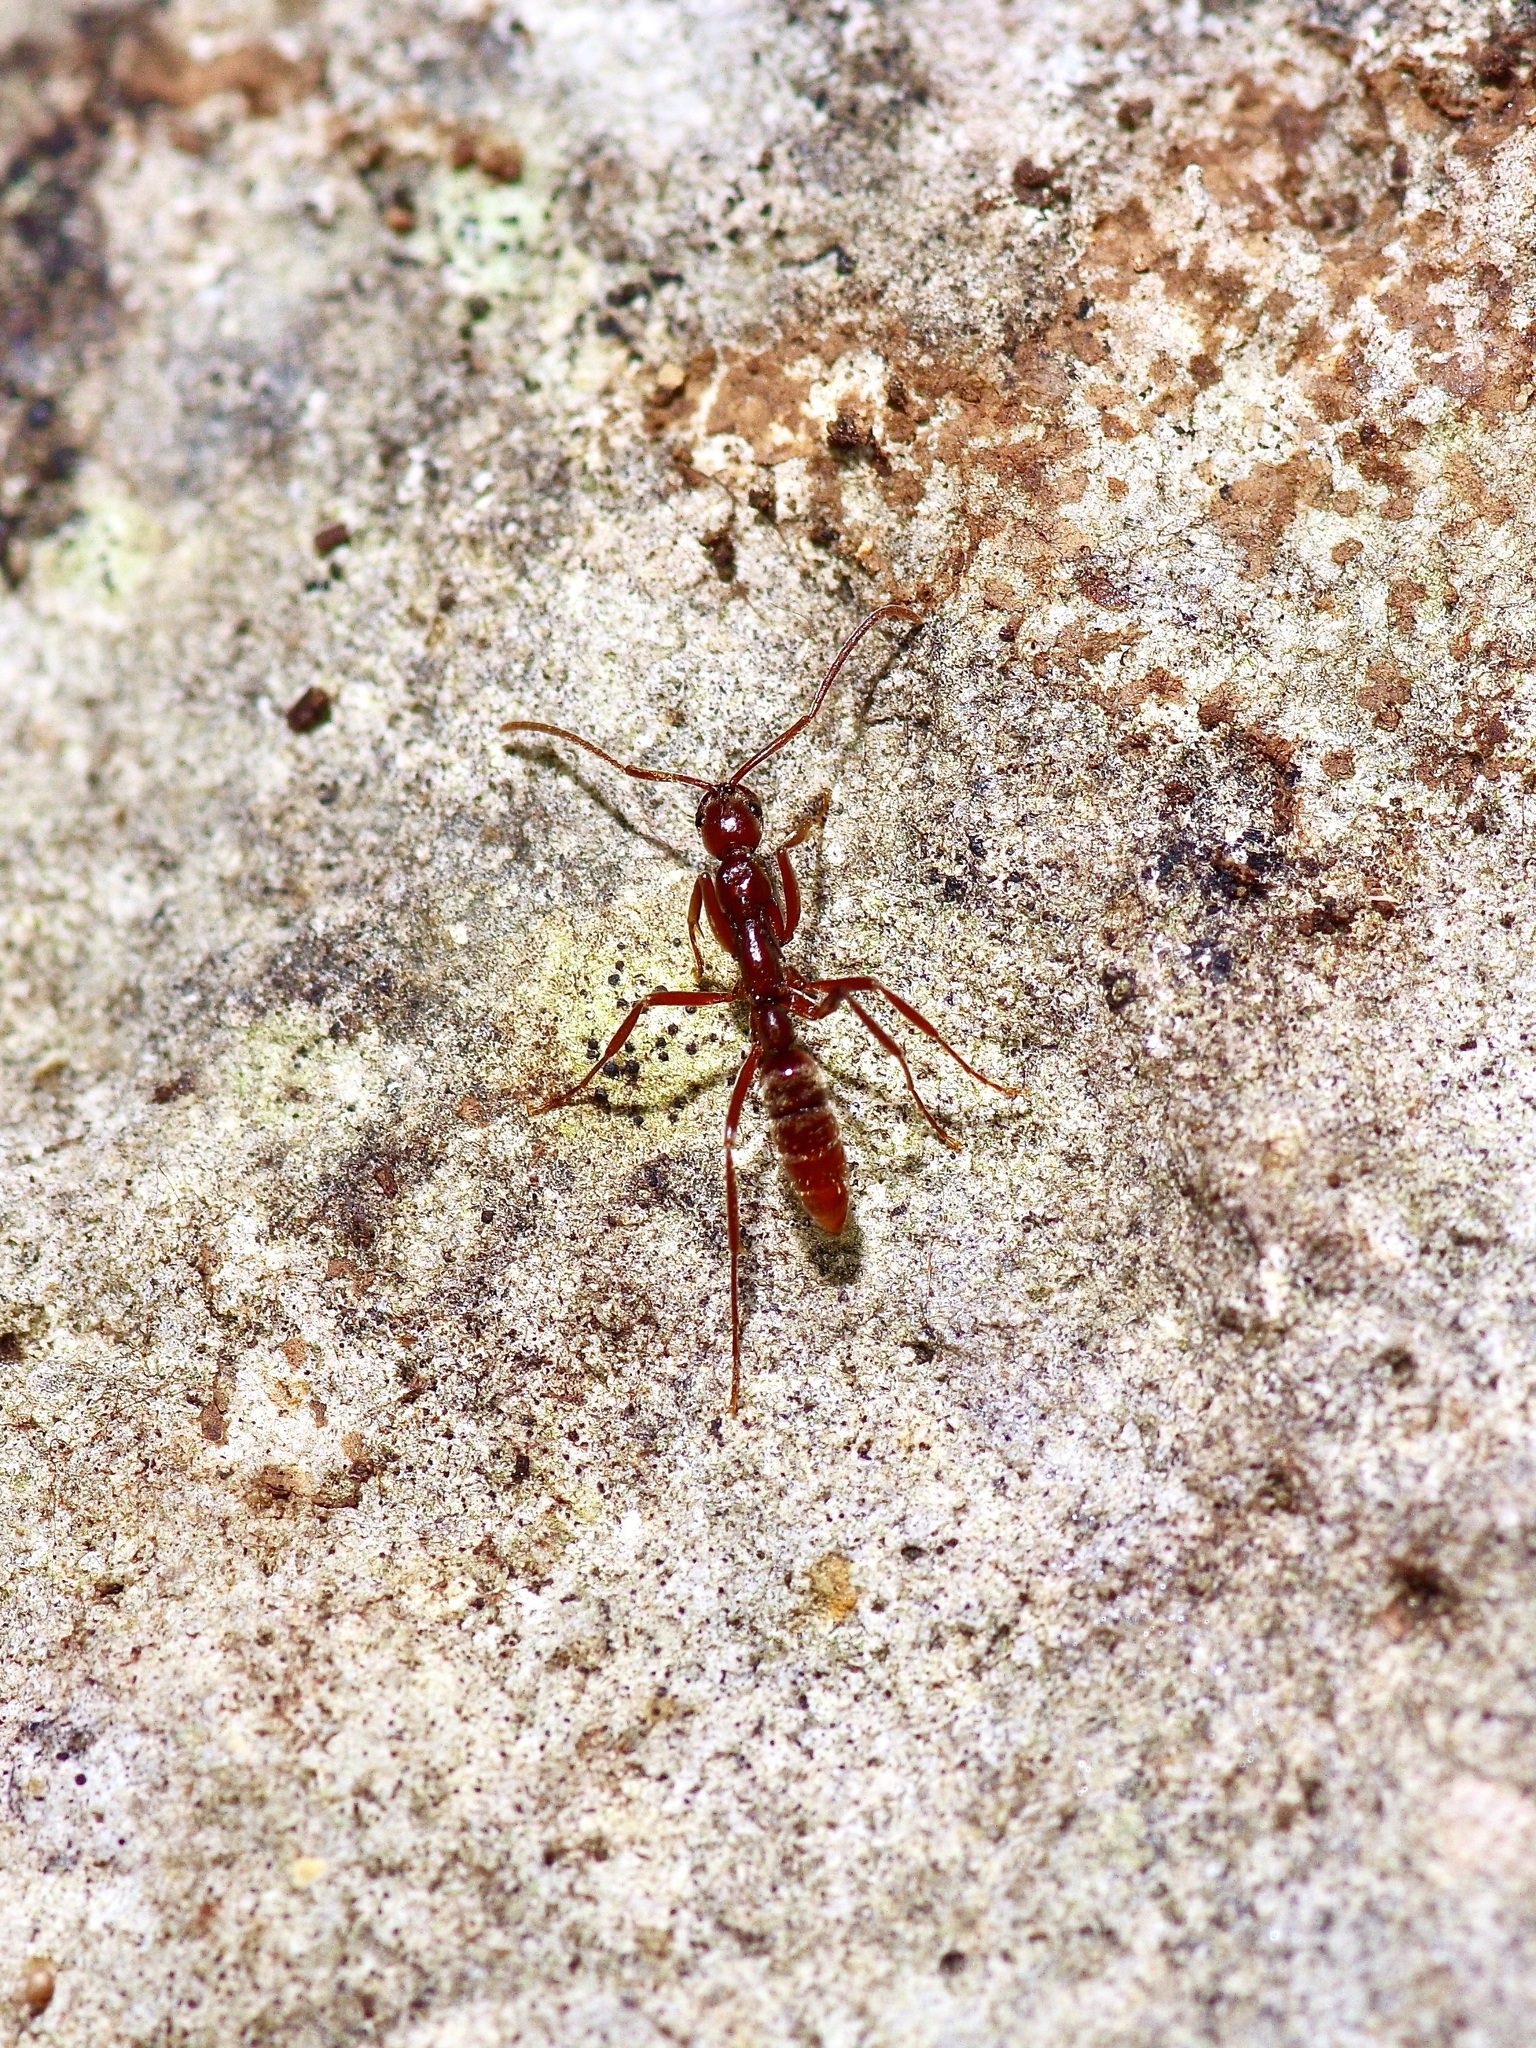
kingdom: Animalia
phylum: Arthropoda
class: Insecta
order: Hymenoptera
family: Formicidae
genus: Leptogenys
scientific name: Leptogenys elongata
